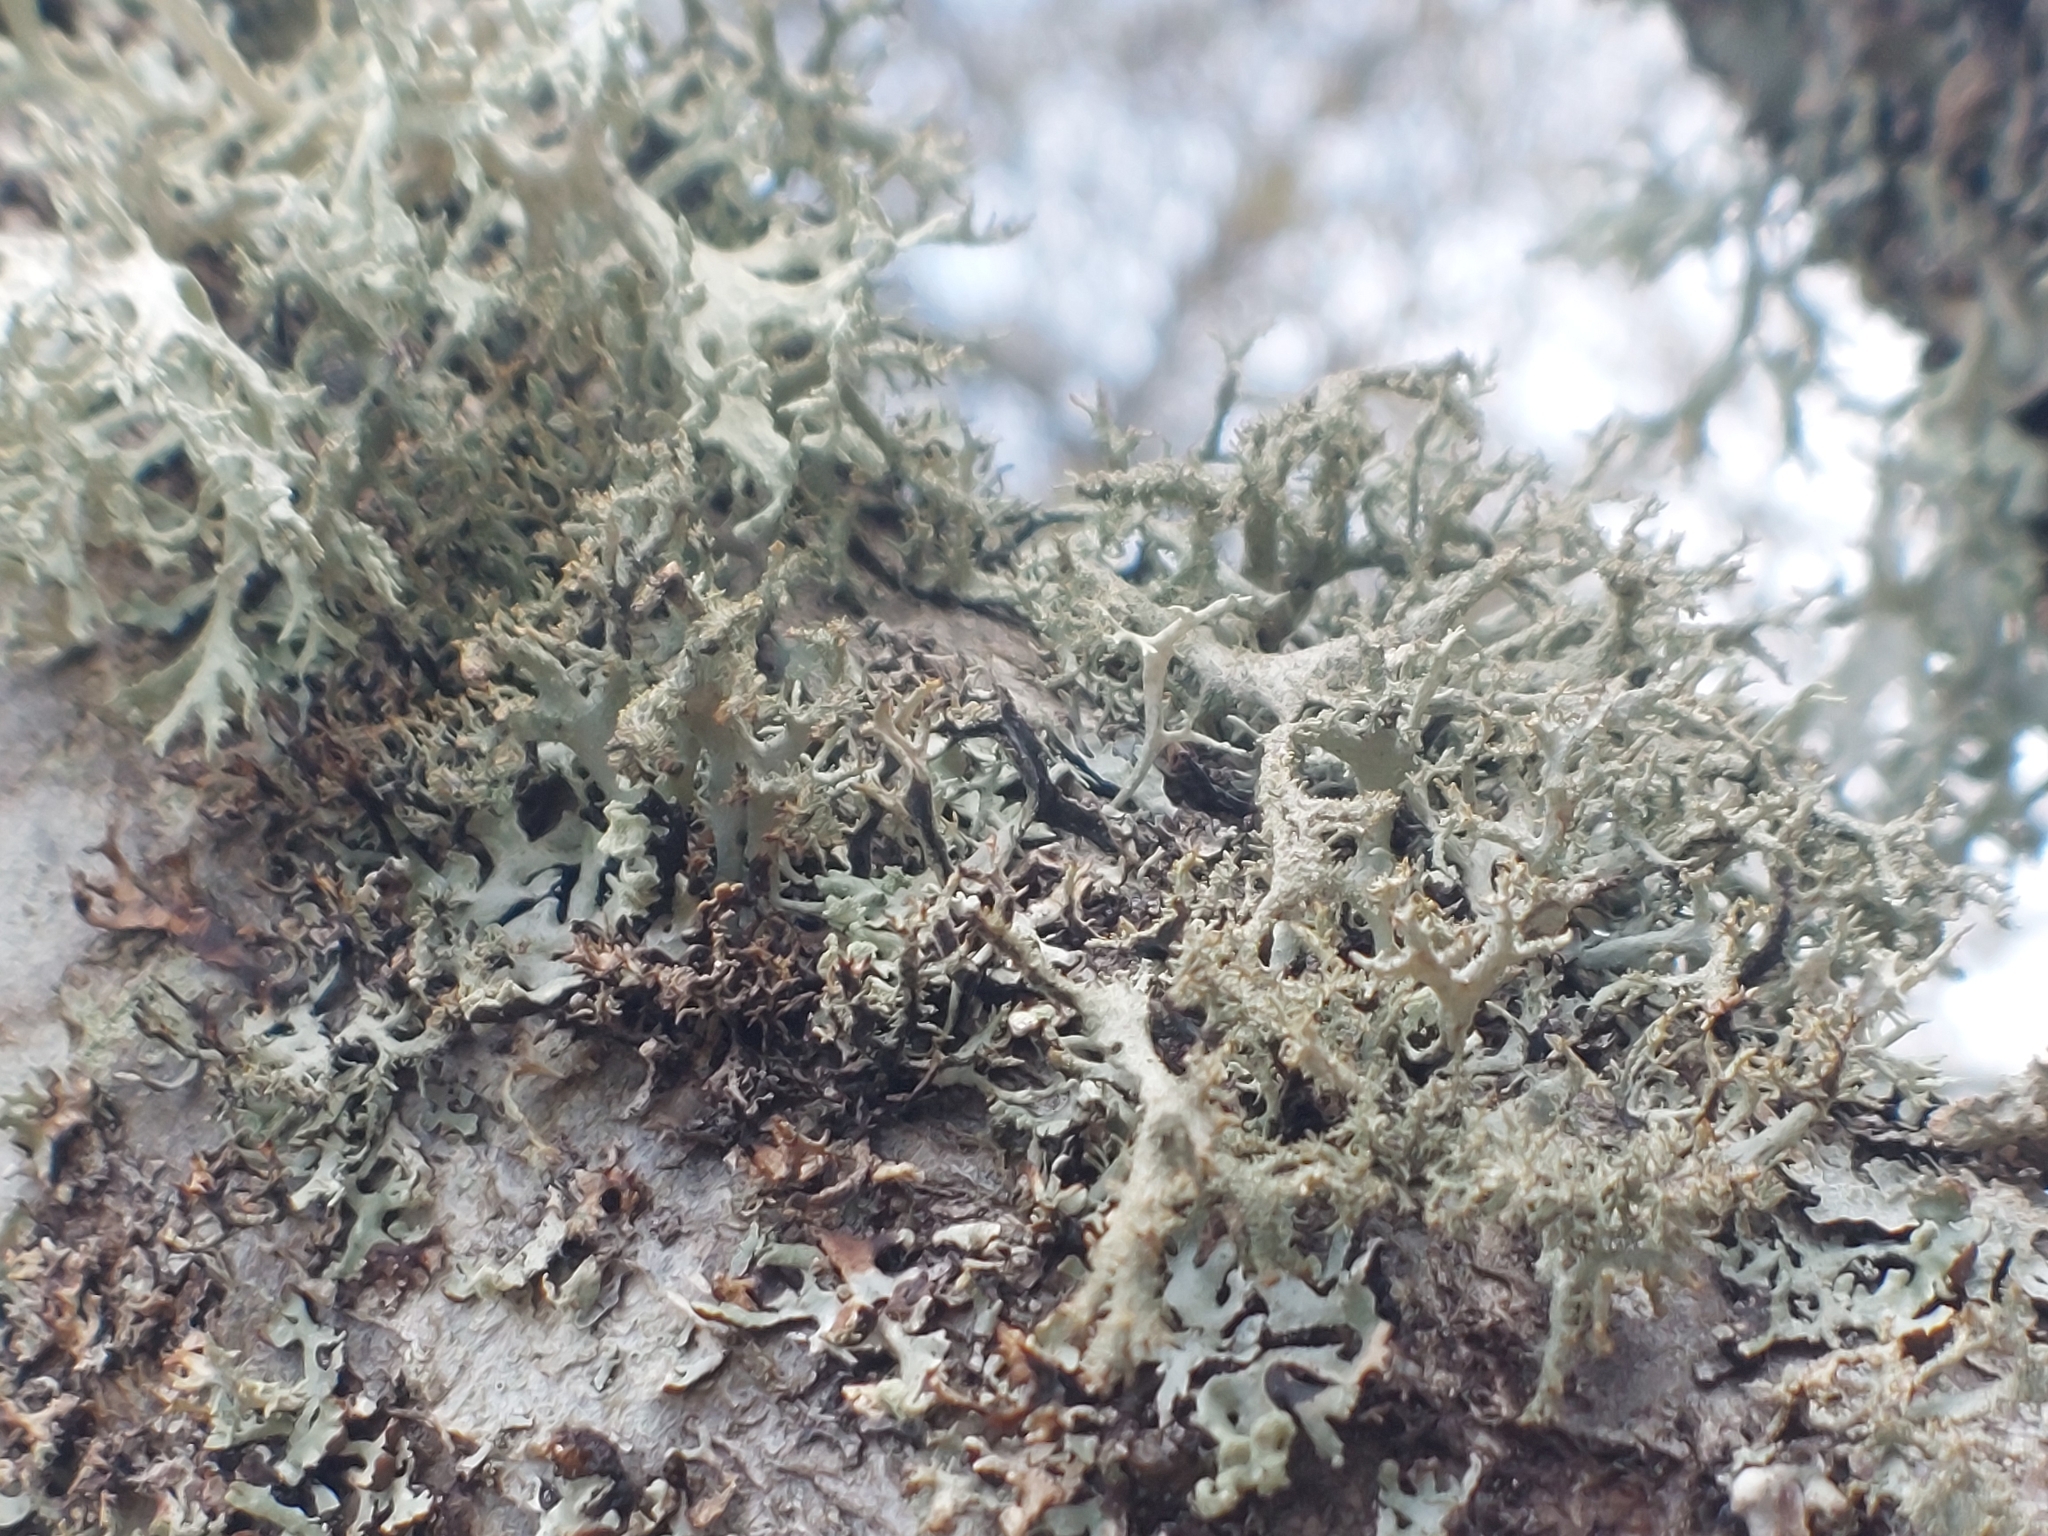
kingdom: Fungi
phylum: Ascomycota
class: Lecanoromycetes
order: Lecanorales
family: Parmeliaceae
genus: Pseudevernia
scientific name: Pseudevernia furfuracea
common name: Tree moss
